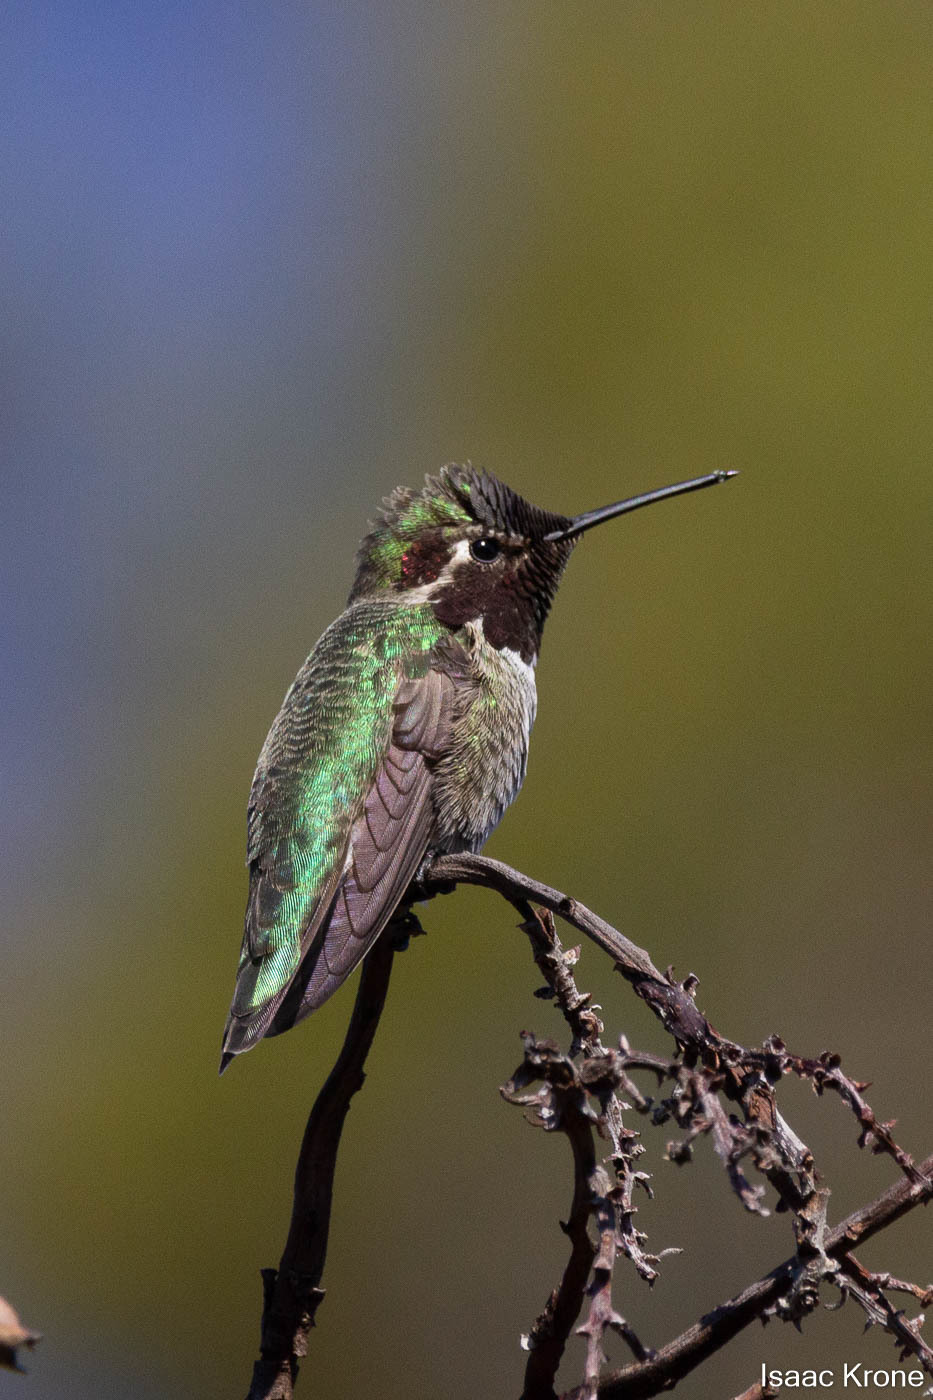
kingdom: Animalia
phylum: Chordata
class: Aves
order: Apodiformes
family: Trochilidae
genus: Calypte
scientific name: Calypte anna
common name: Anna's hummingbird
